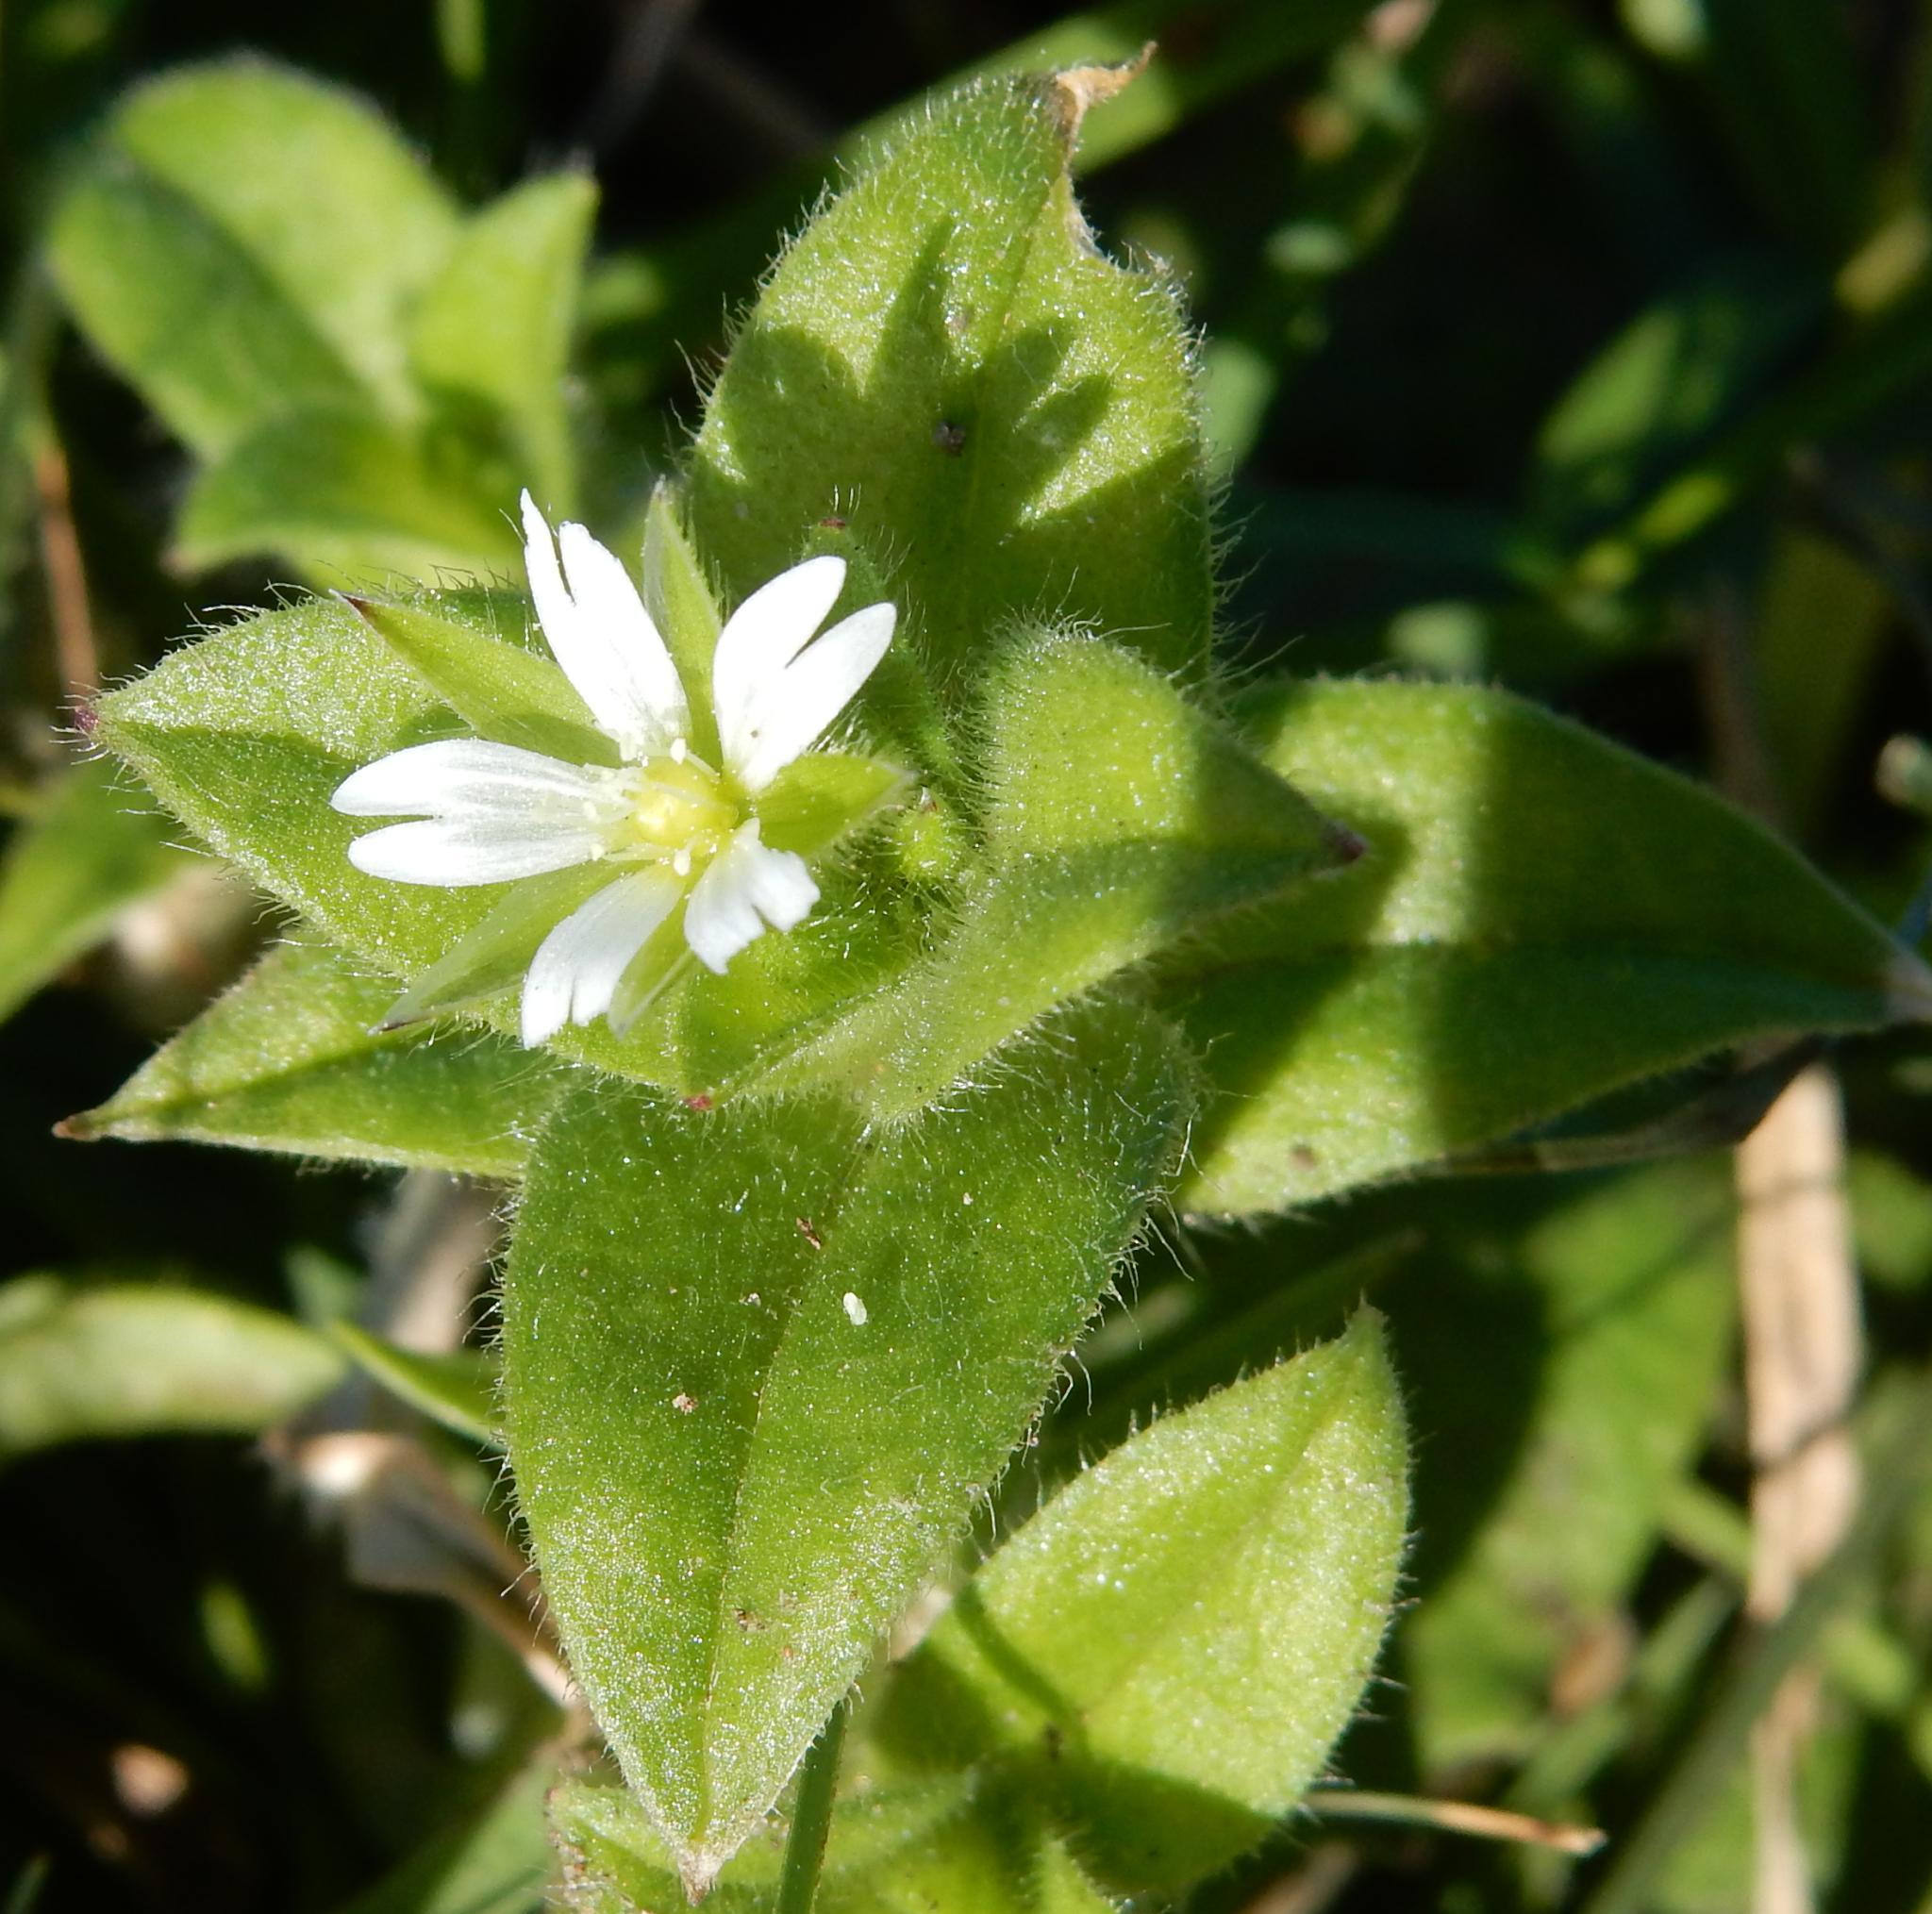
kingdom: Plantae
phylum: Tracheophyta
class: Magnoliopsida
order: Caryophyllales
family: Caryophyllaceae
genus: Cerastium
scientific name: Cerastium capense
